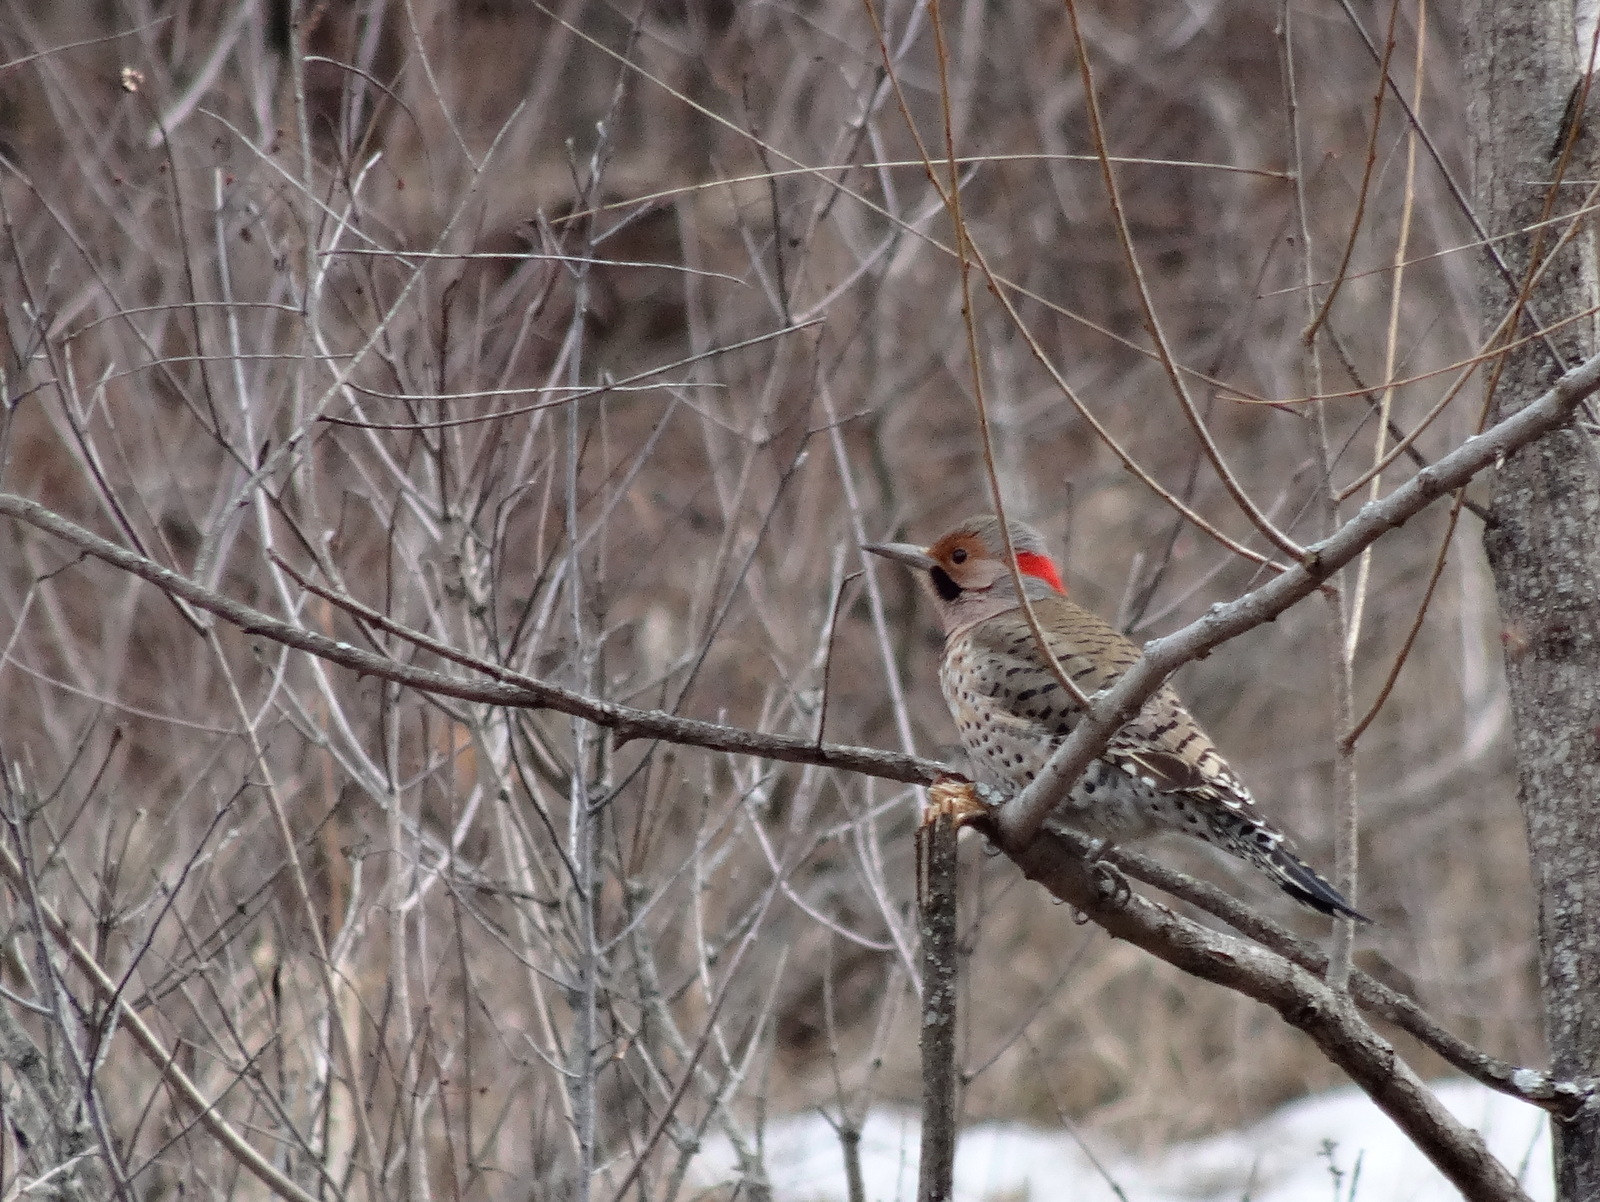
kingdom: Animalia
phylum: Chordata
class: Aves
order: Piciformes
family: Picidae
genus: Colaptes
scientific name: Colaptes auratus
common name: Northern flicker
